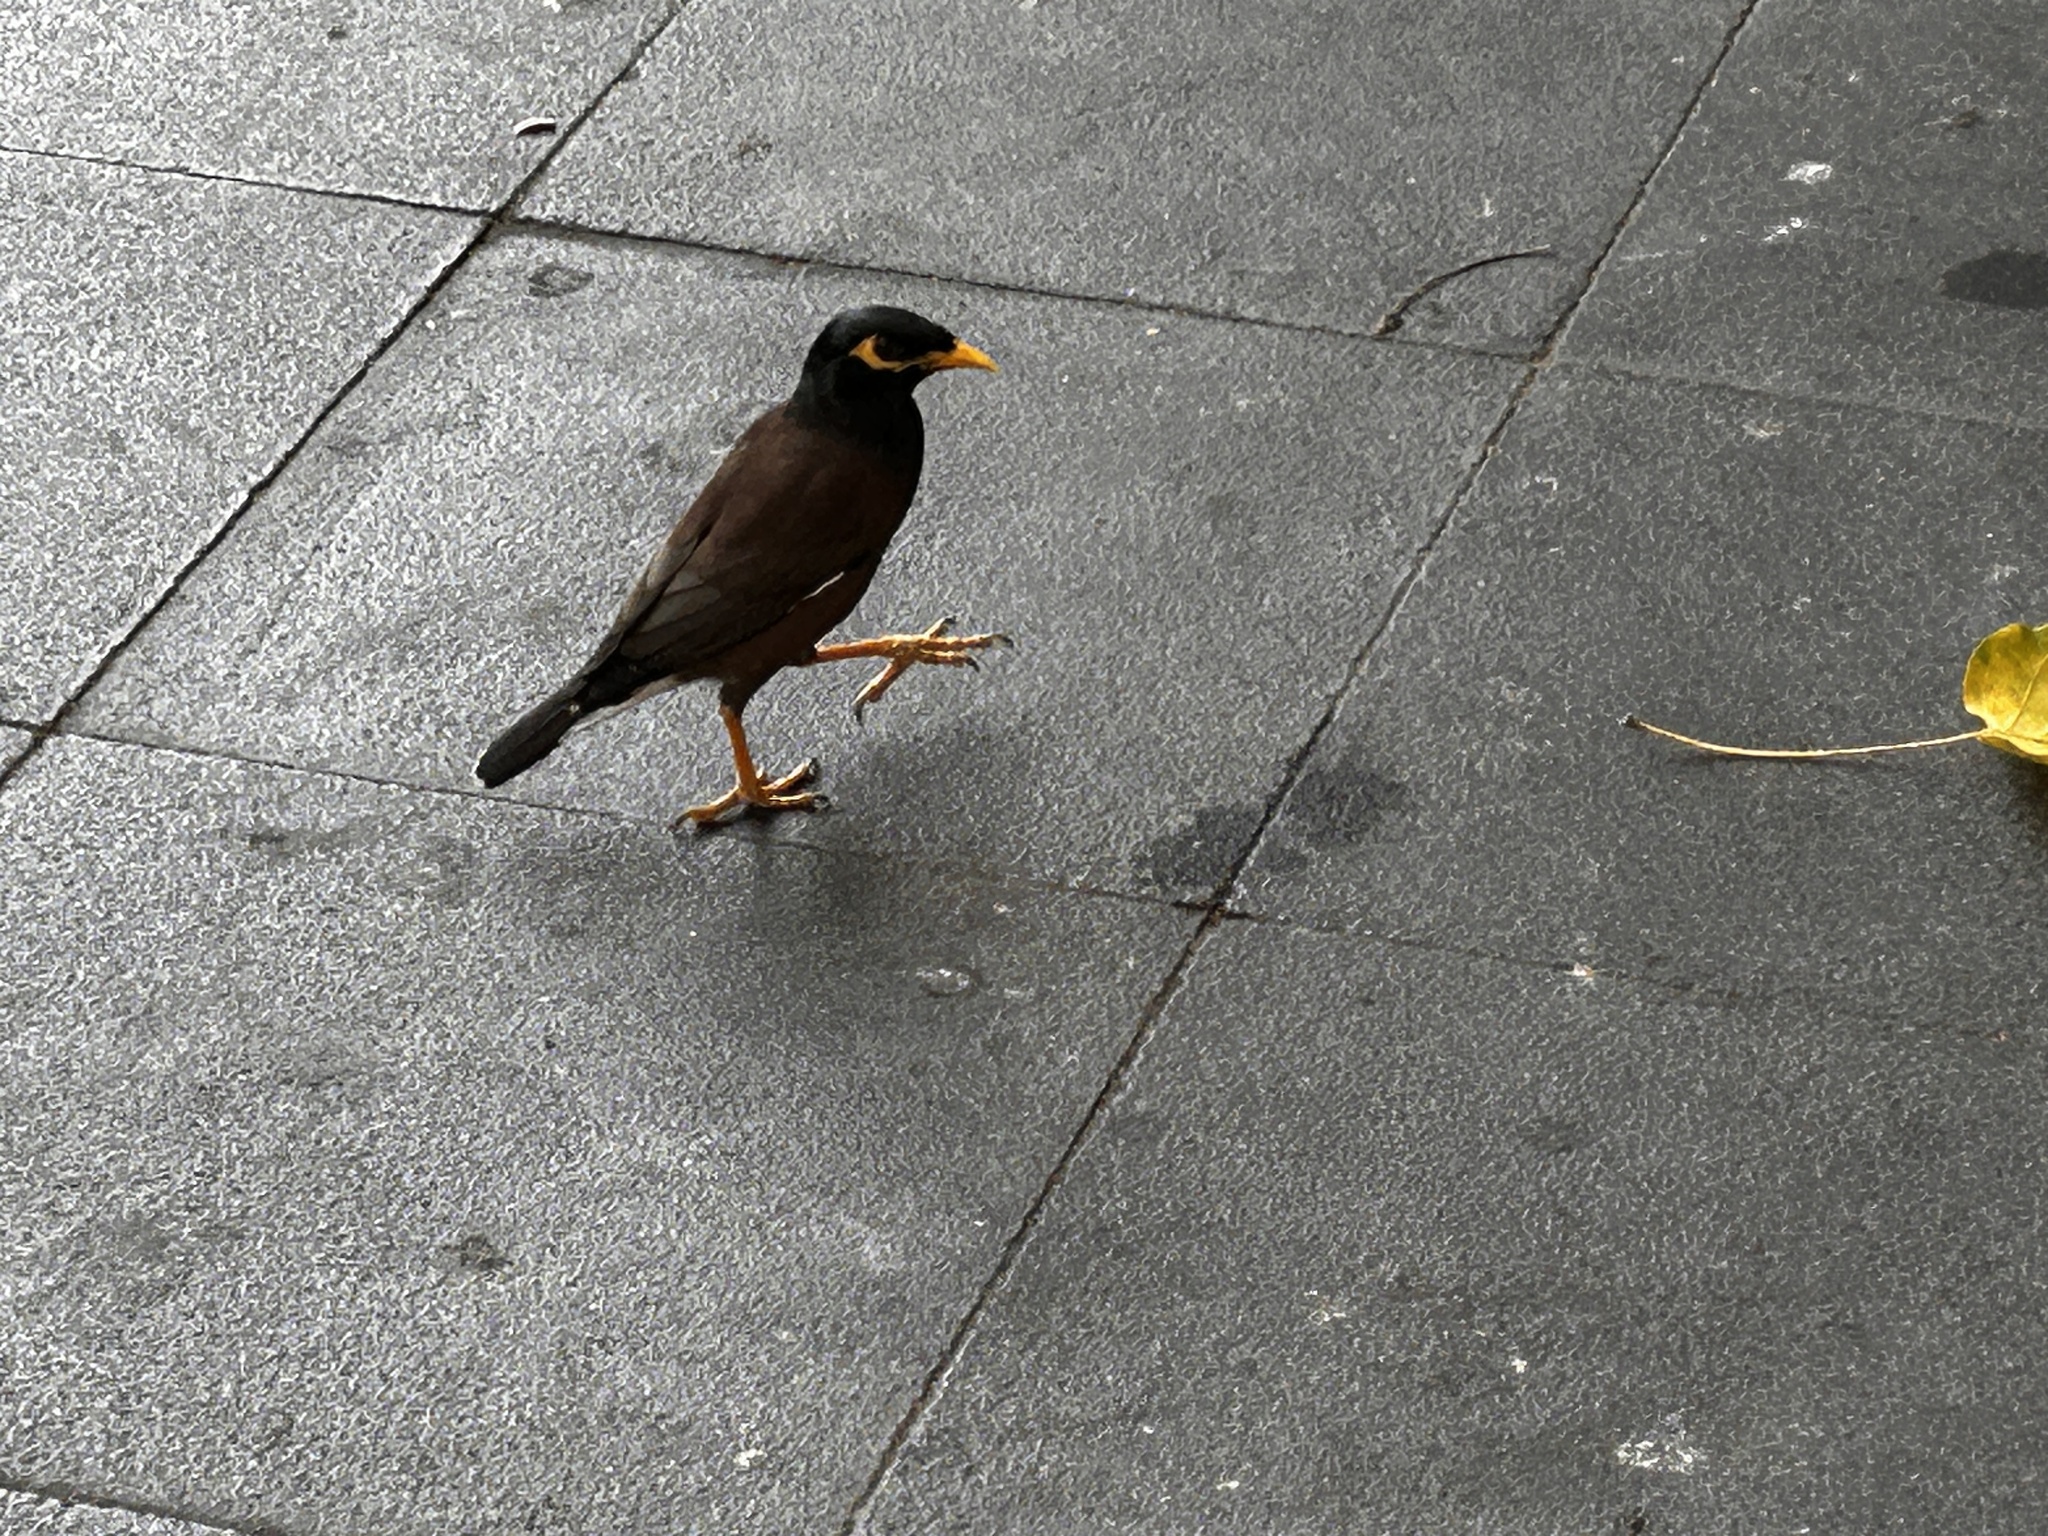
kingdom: Animalia
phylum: Chordata
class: Aves
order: Passeriformes
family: Sturnidae
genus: Acridotheres
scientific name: Acridotheres tristis
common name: Common myna
